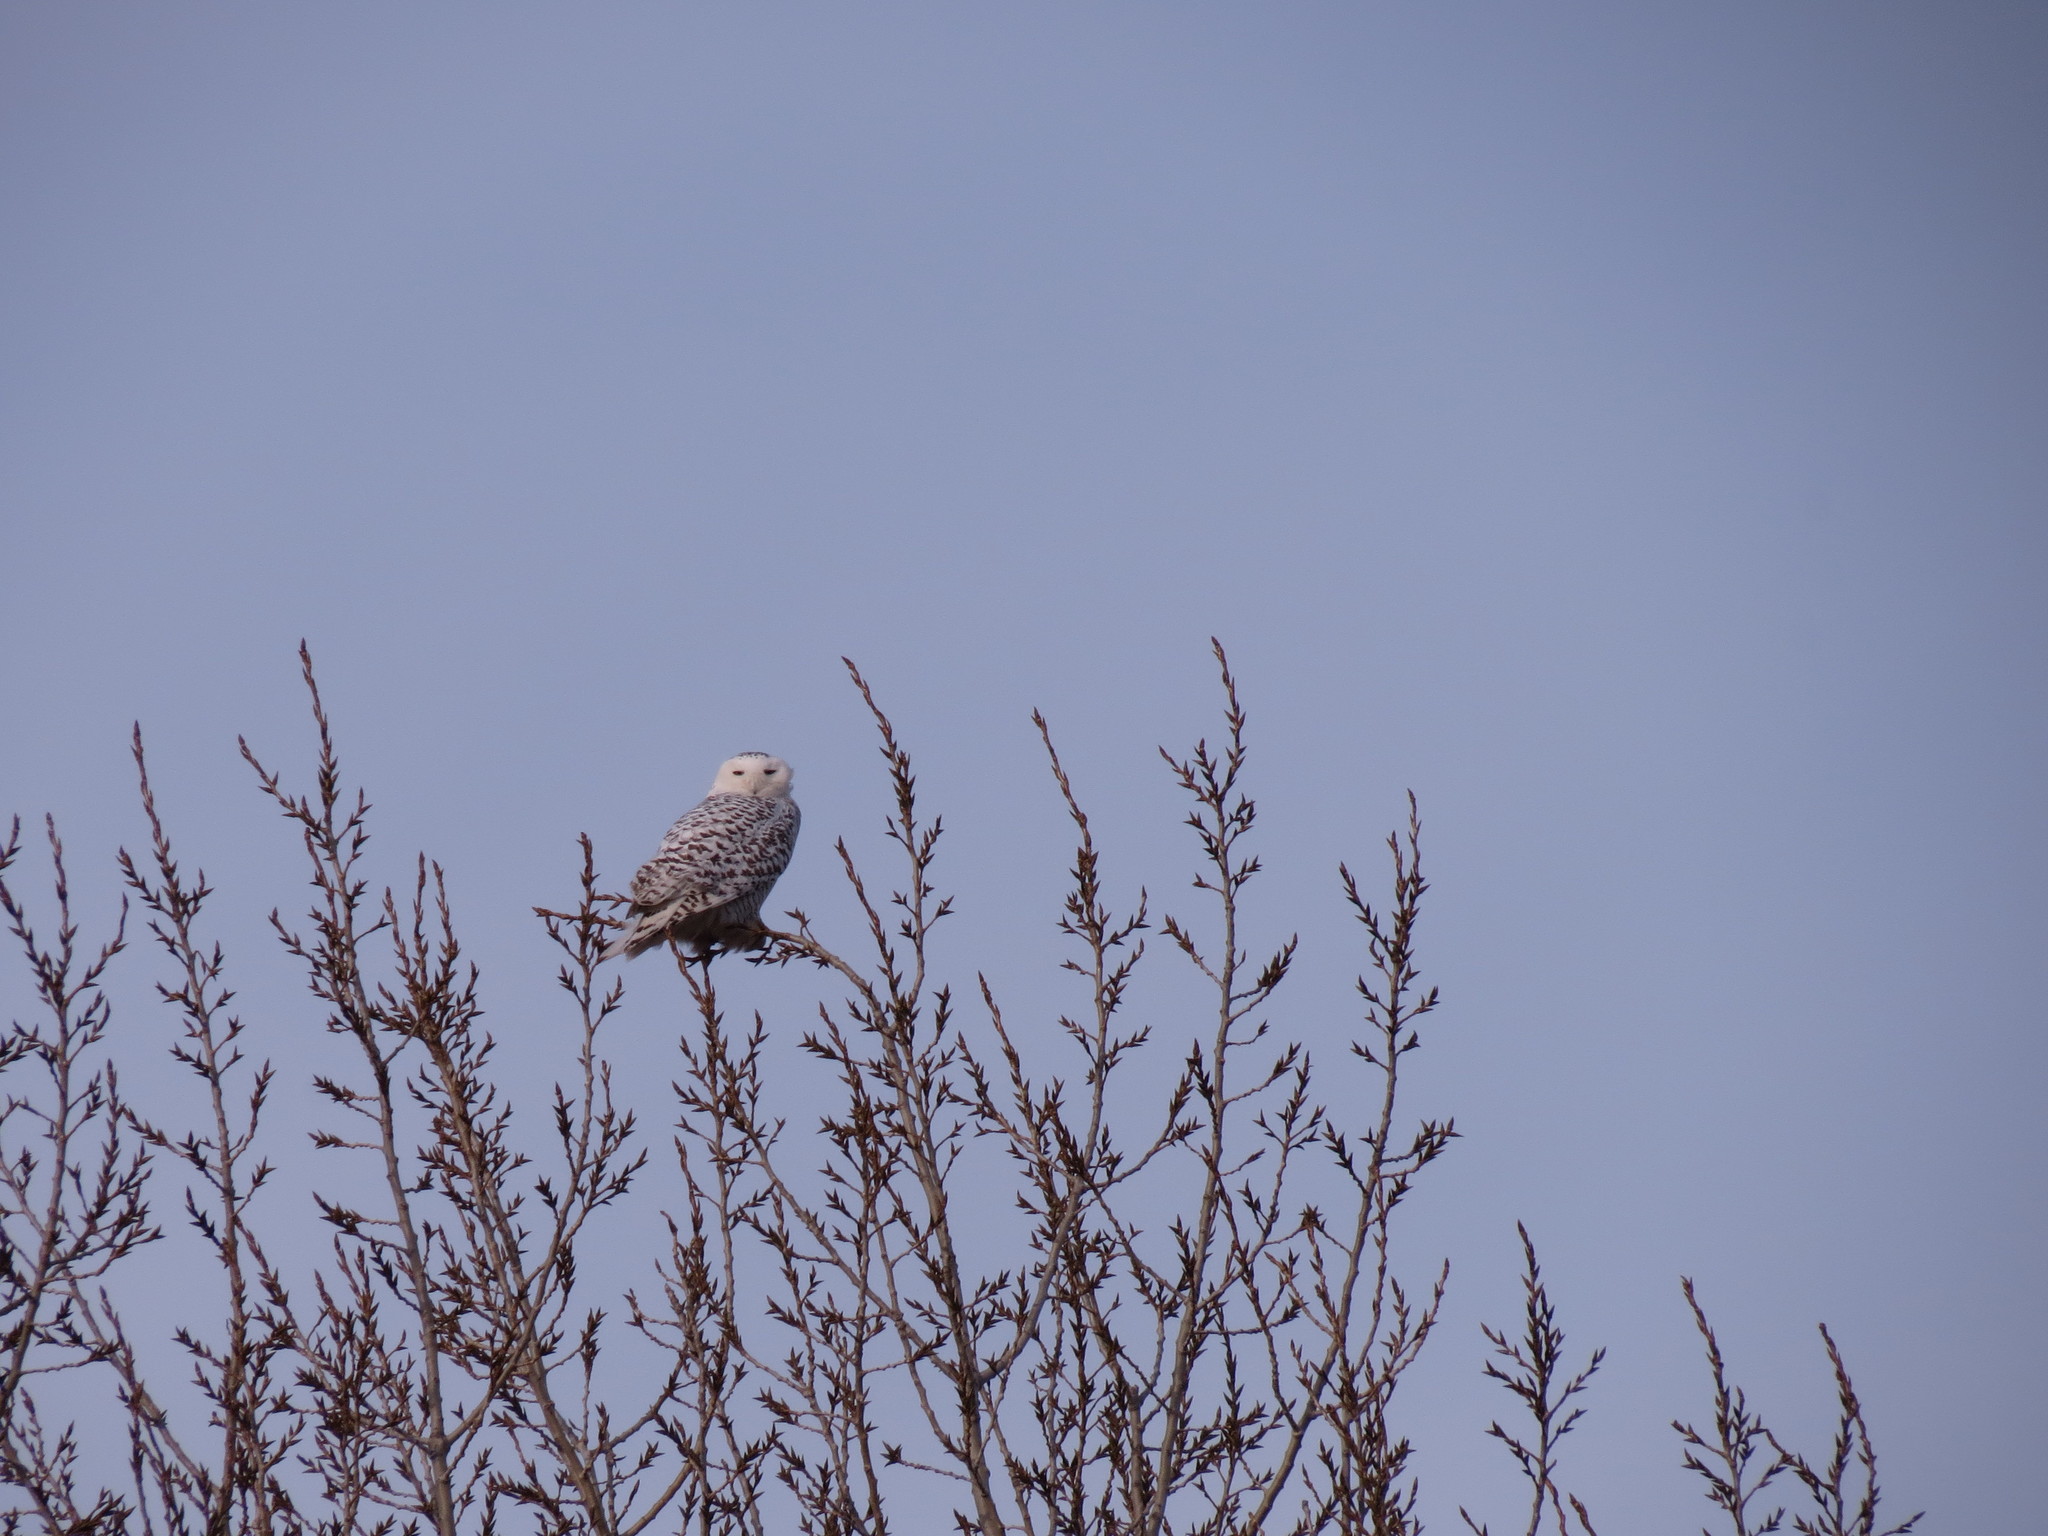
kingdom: Animalia
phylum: Chordata
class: Aves
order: Strigiformes
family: Strigidae
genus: Bubo
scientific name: Bubo scandiacus
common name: Snowy owl
